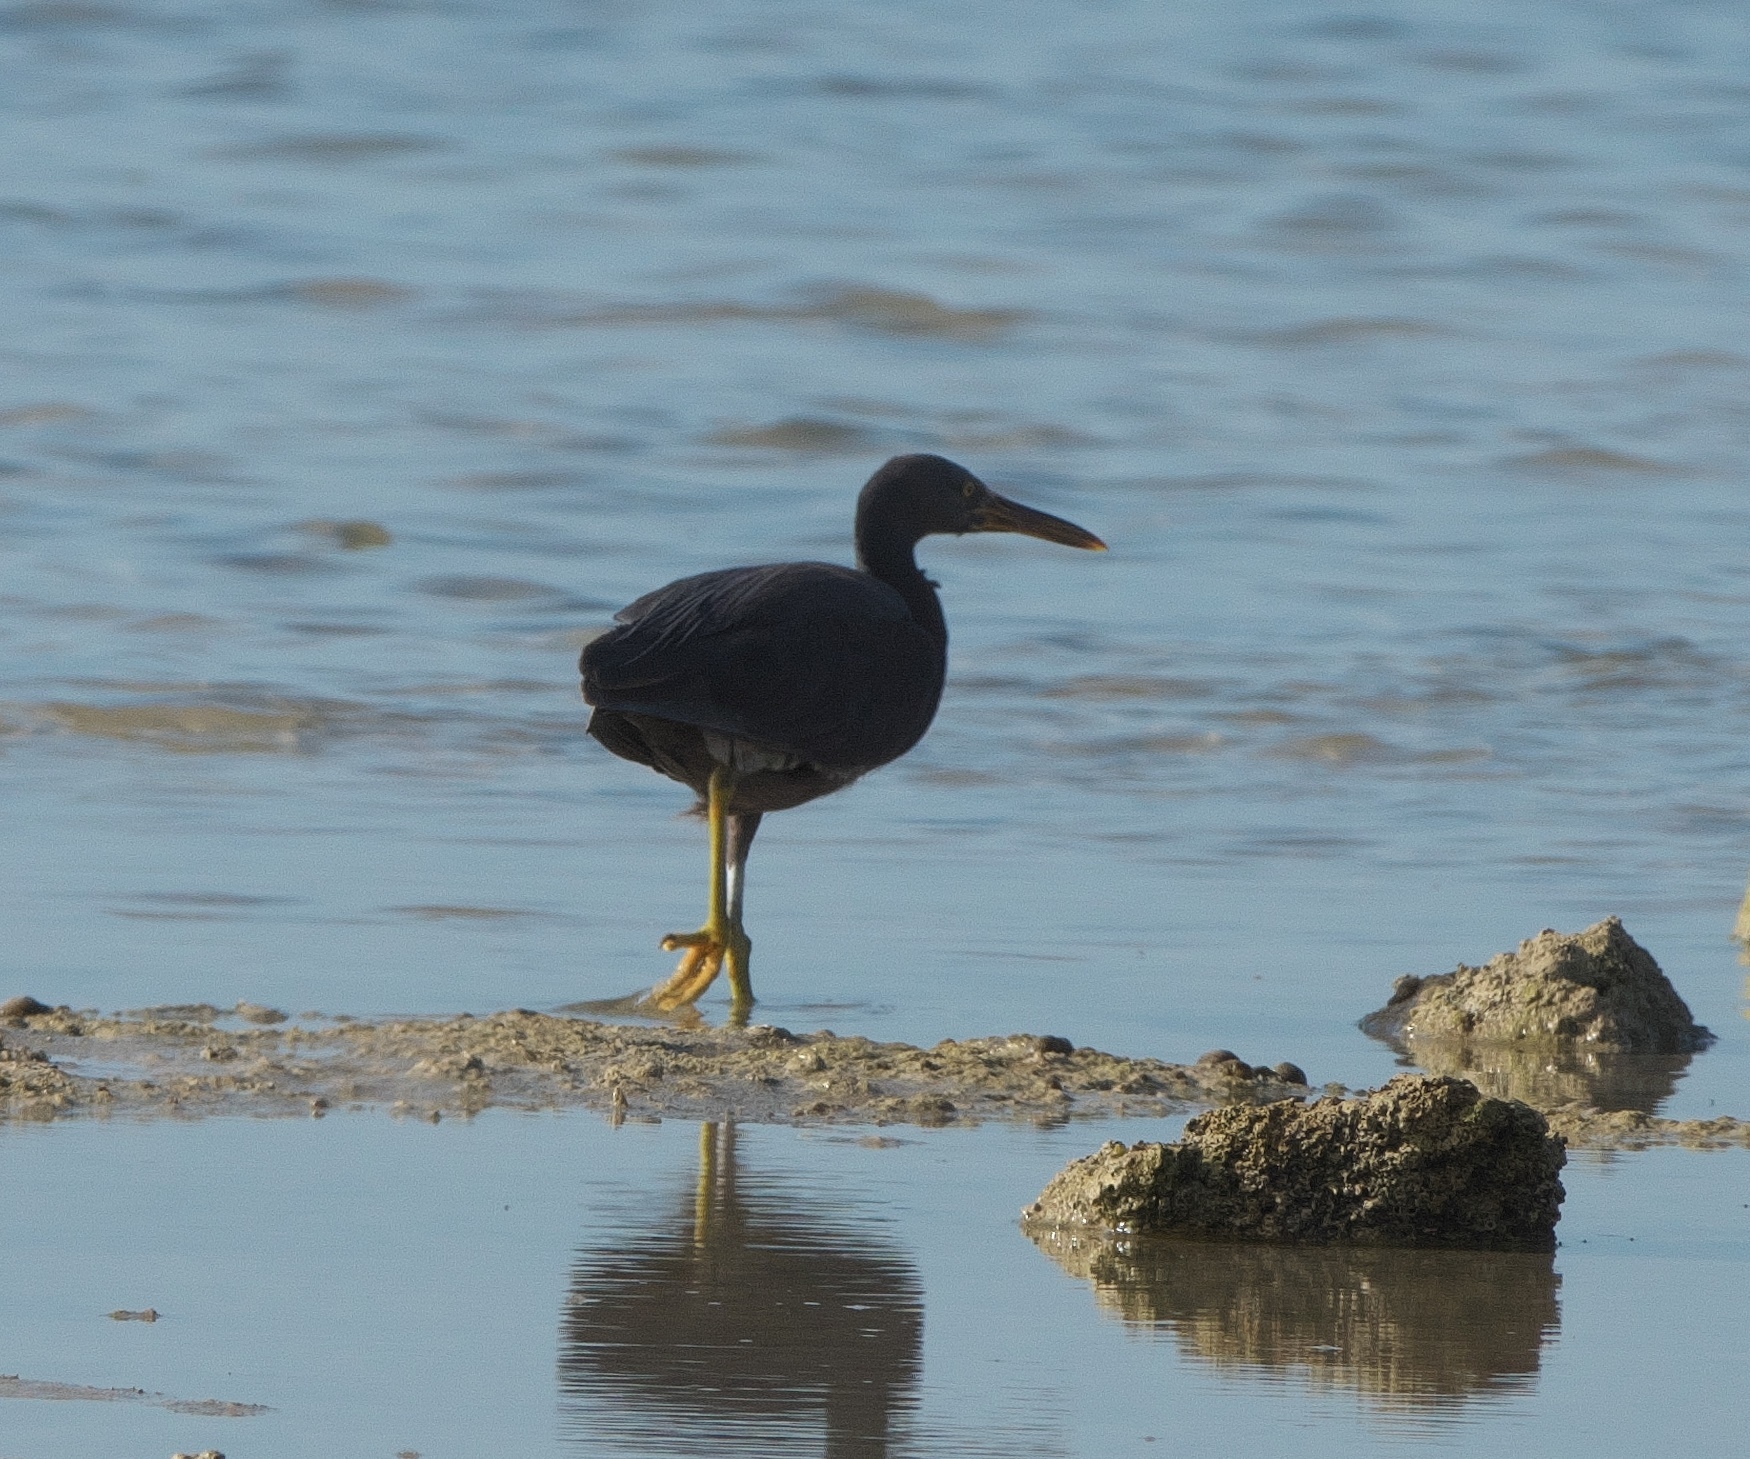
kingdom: Animalia
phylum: Chordata
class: Aves
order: Pelecaniformes
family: Ardeidae
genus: Egretta
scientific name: Egretta sacra
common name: Pacific reef heron
